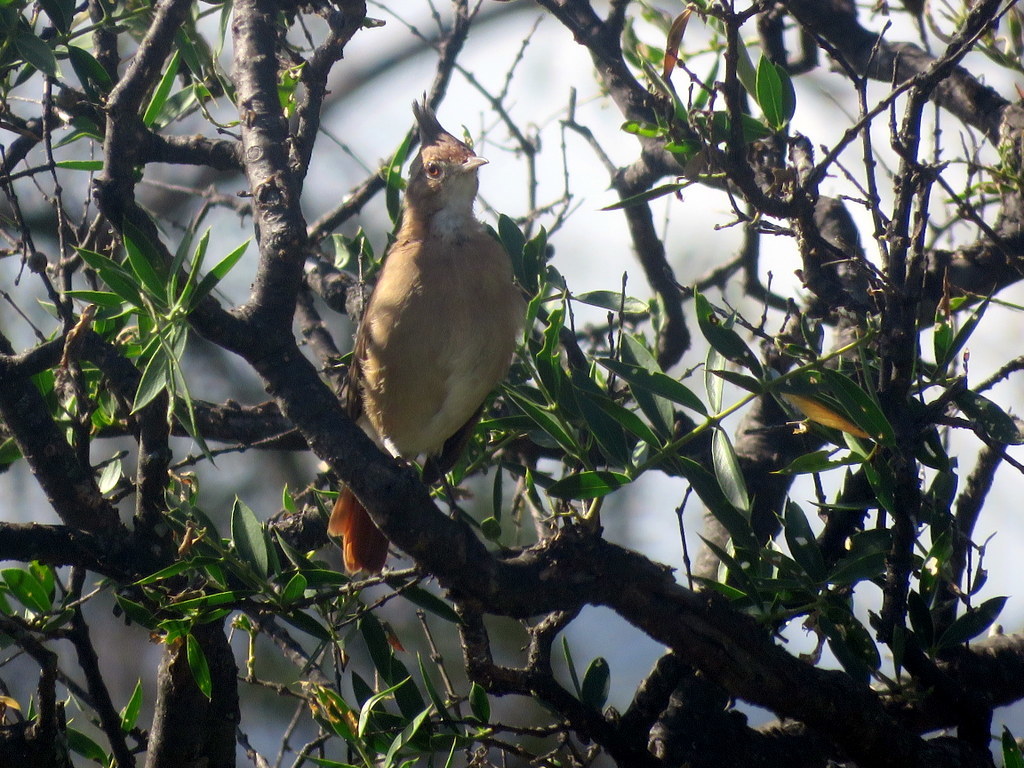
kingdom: Animalia
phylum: Chordata
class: Aves
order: Passeriformes
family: Furnariidae
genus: Furnarius
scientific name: Furnarius cristatus
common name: Crested hornero
